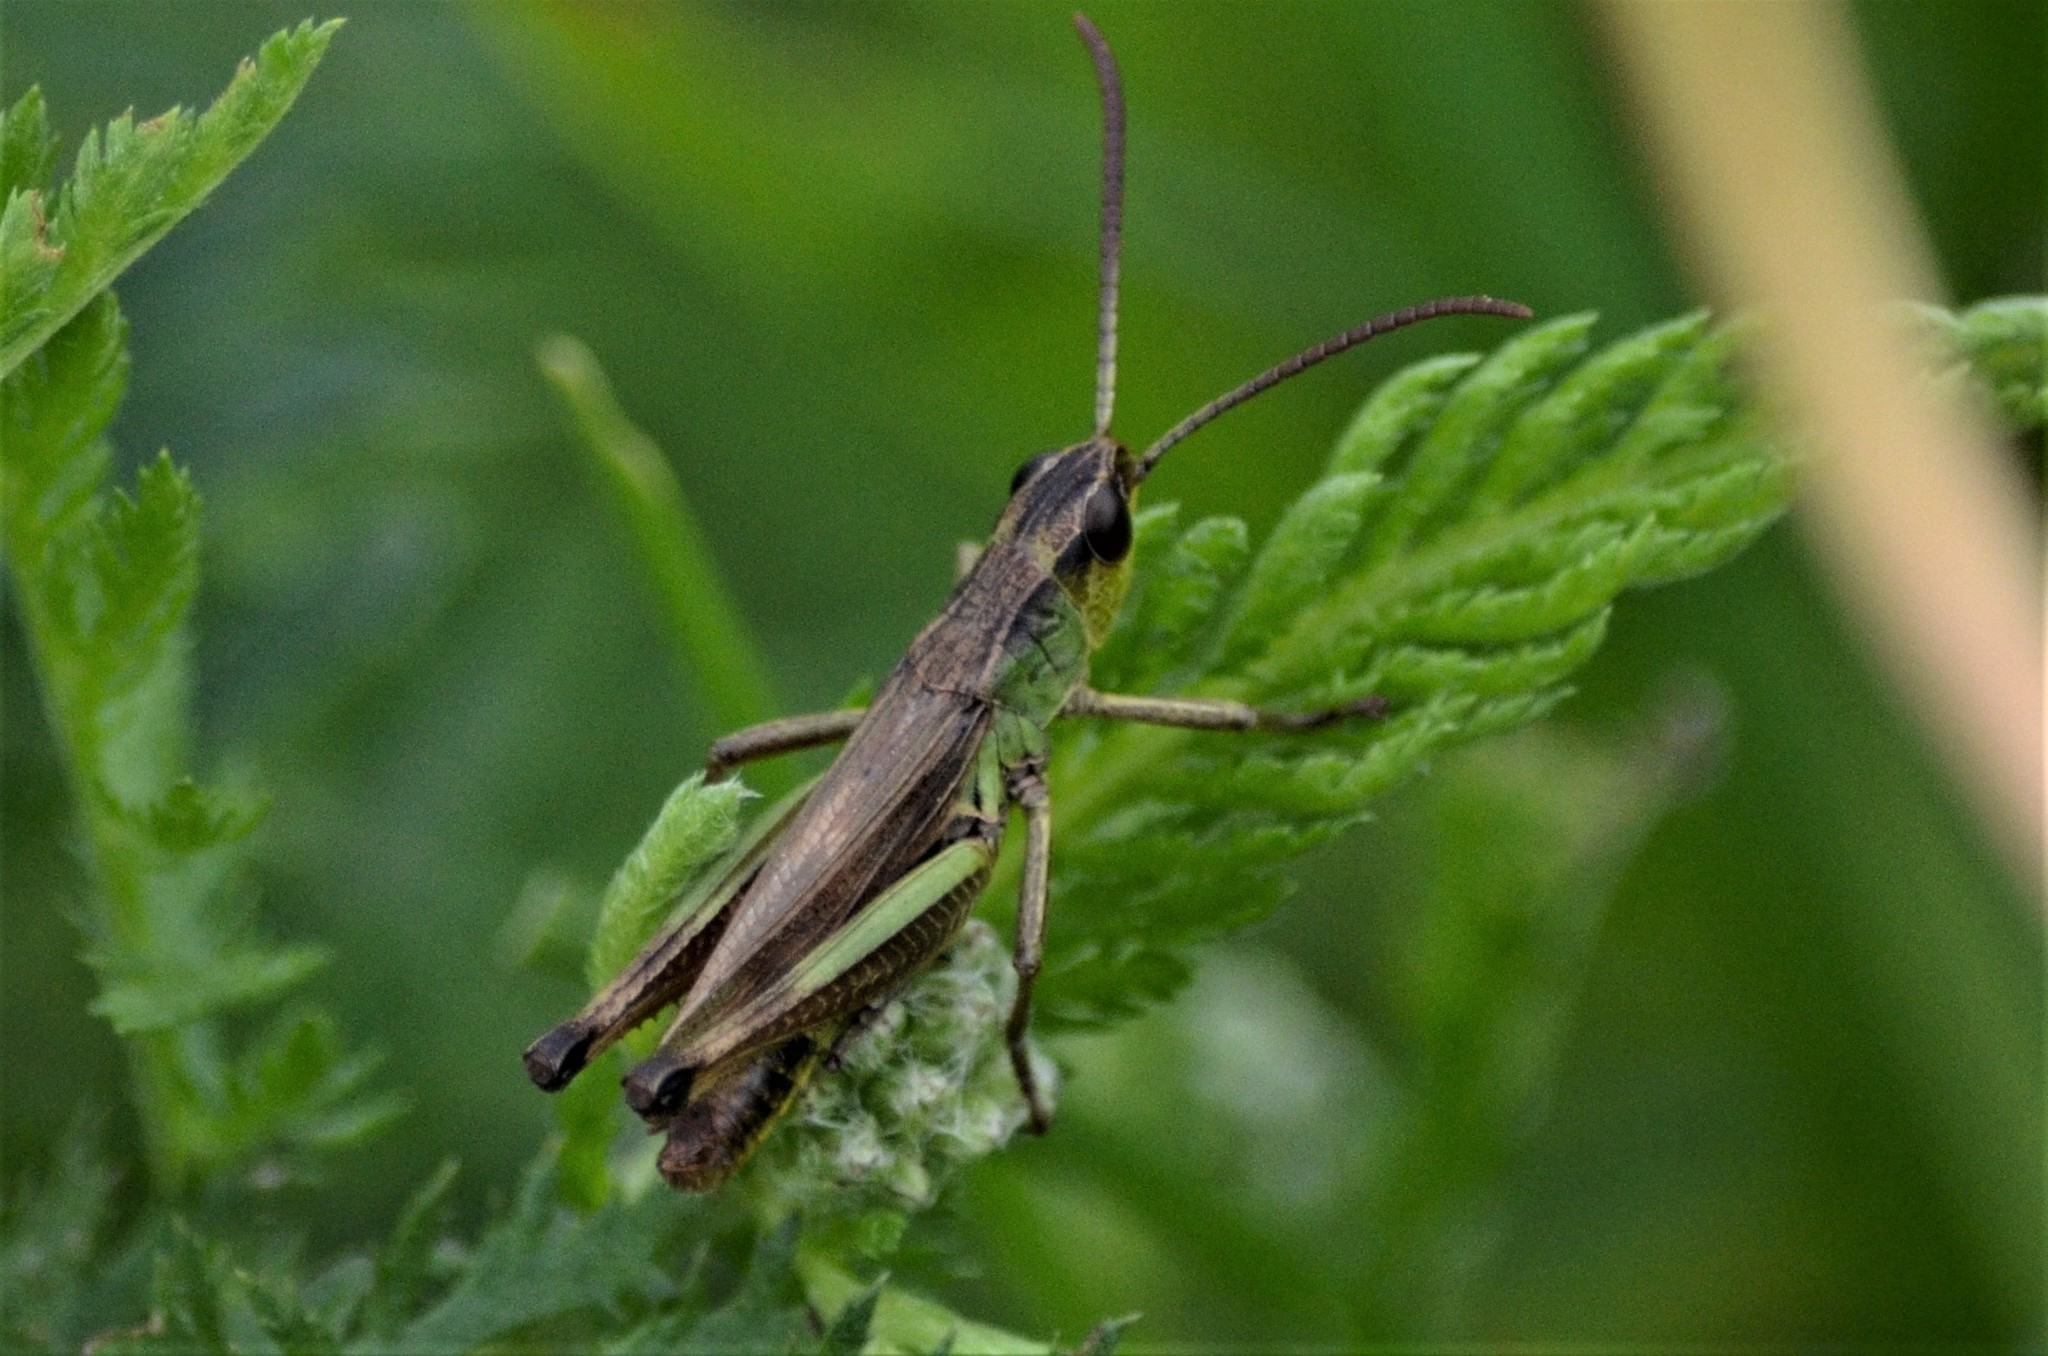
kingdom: Animalia
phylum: Arthropoda
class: Insecta
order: Orthoptera
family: Acrididae
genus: Pseudochorthippus
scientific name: Pseudochorthippus parallelus
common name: Meadow grasshopper
